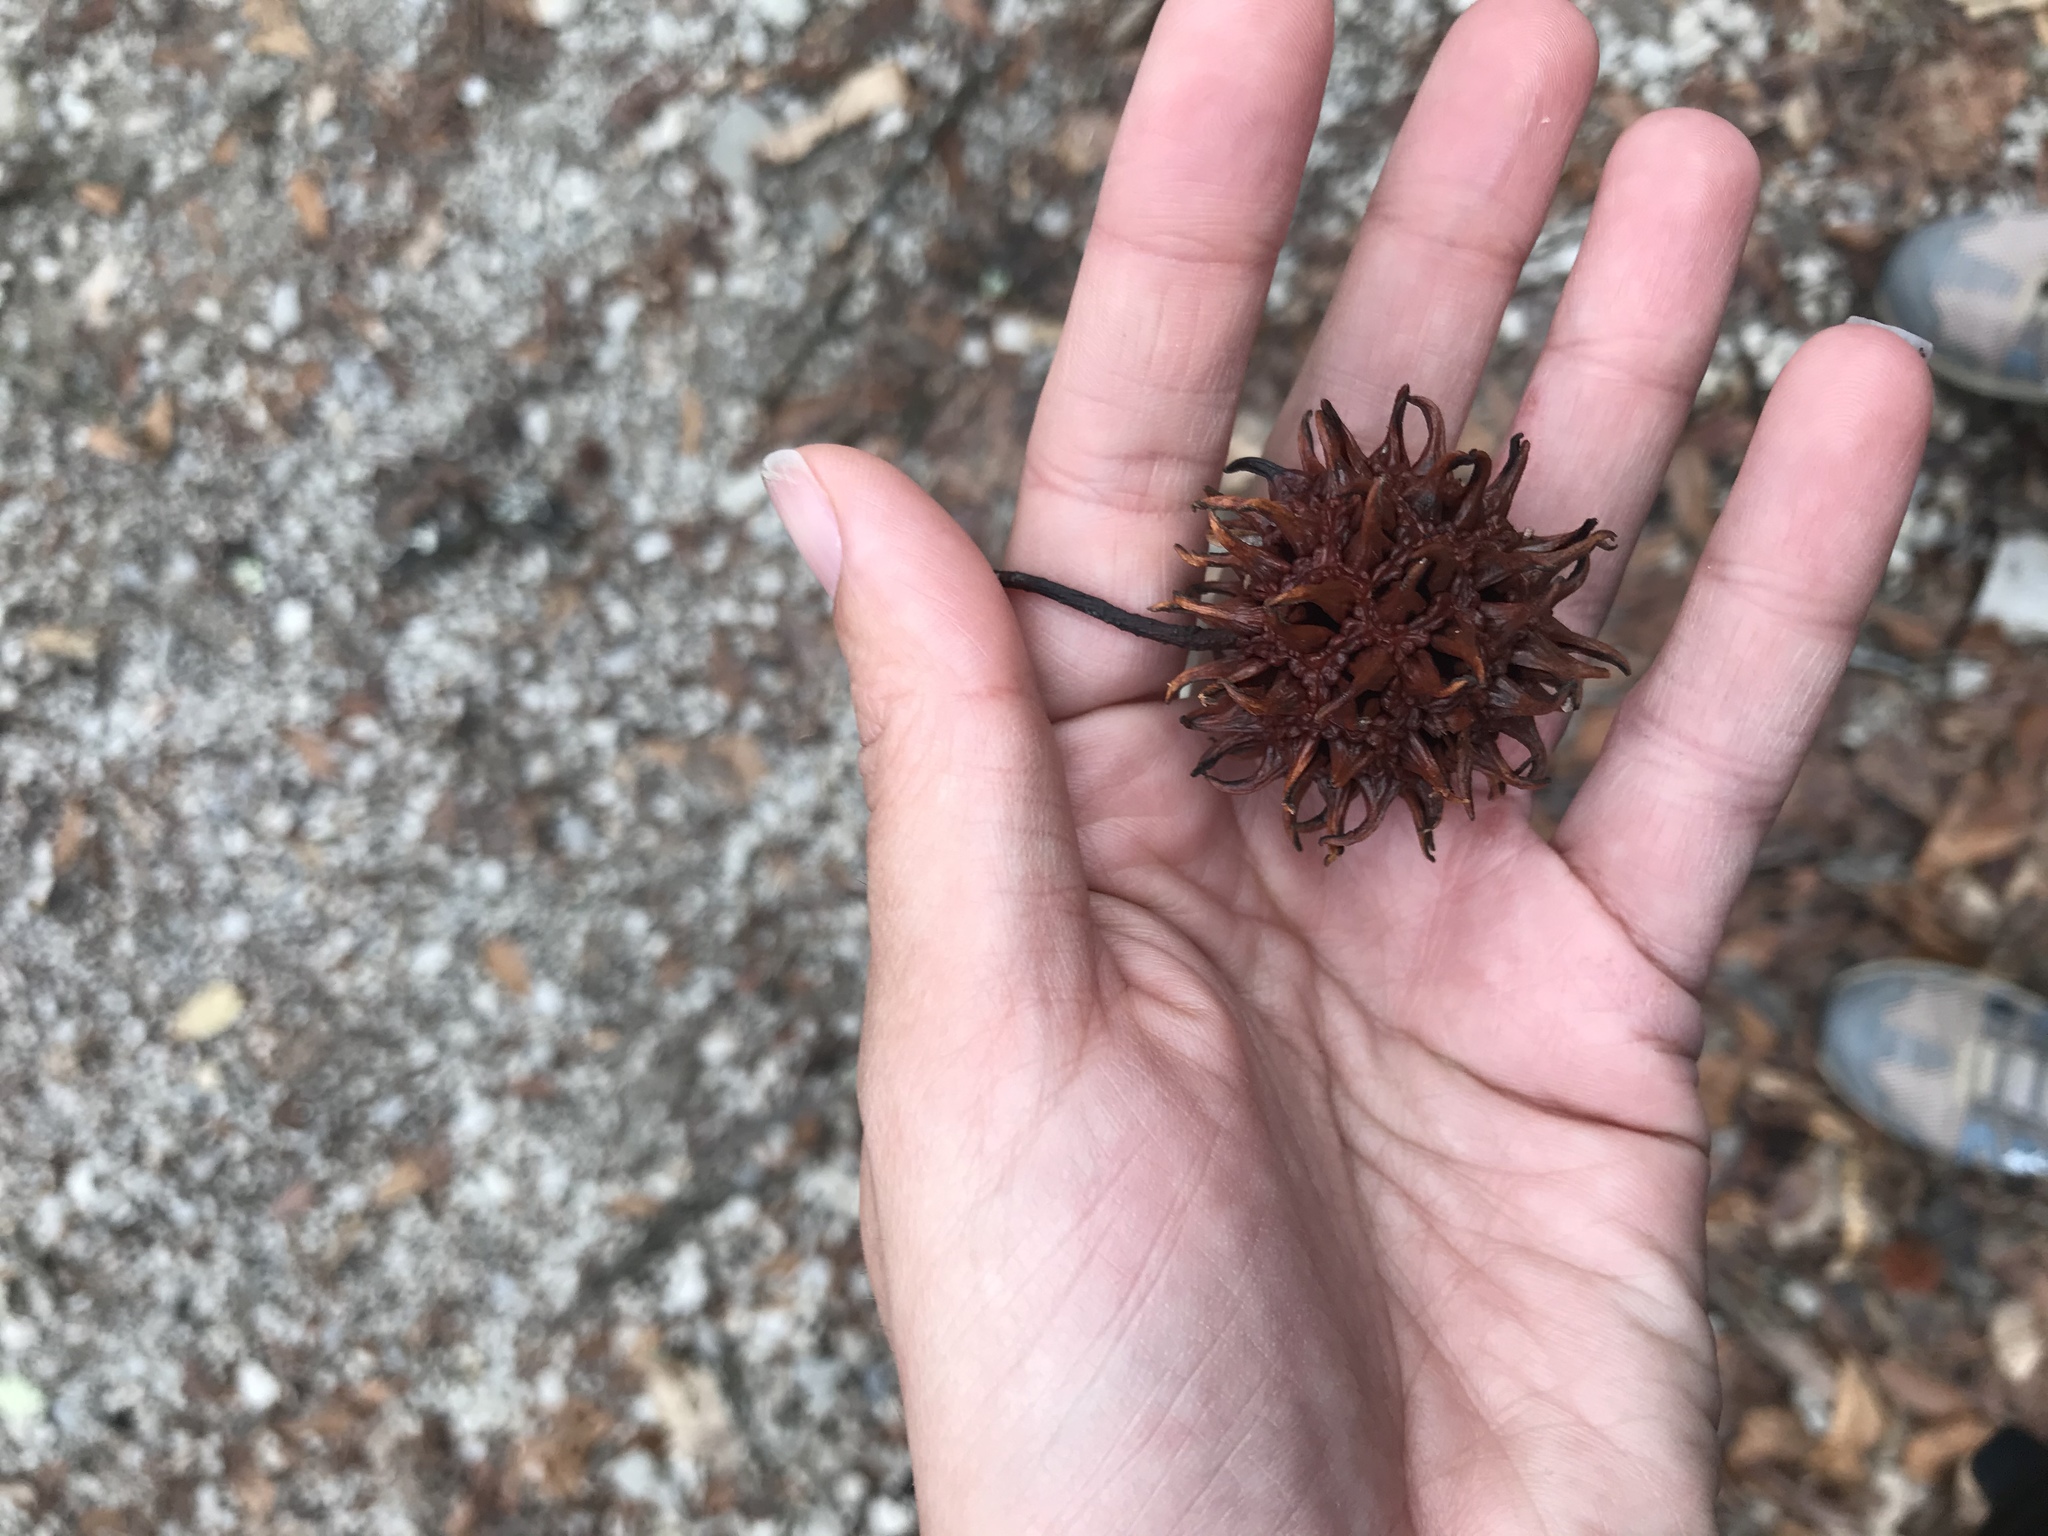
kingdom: Plantae
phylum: Tracheophyta
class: Magnoliopsida
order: Saxifragales
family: Altingiaceae
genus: Liquidambar
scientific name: Liquidambar styraciflua
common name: Sweet gum
